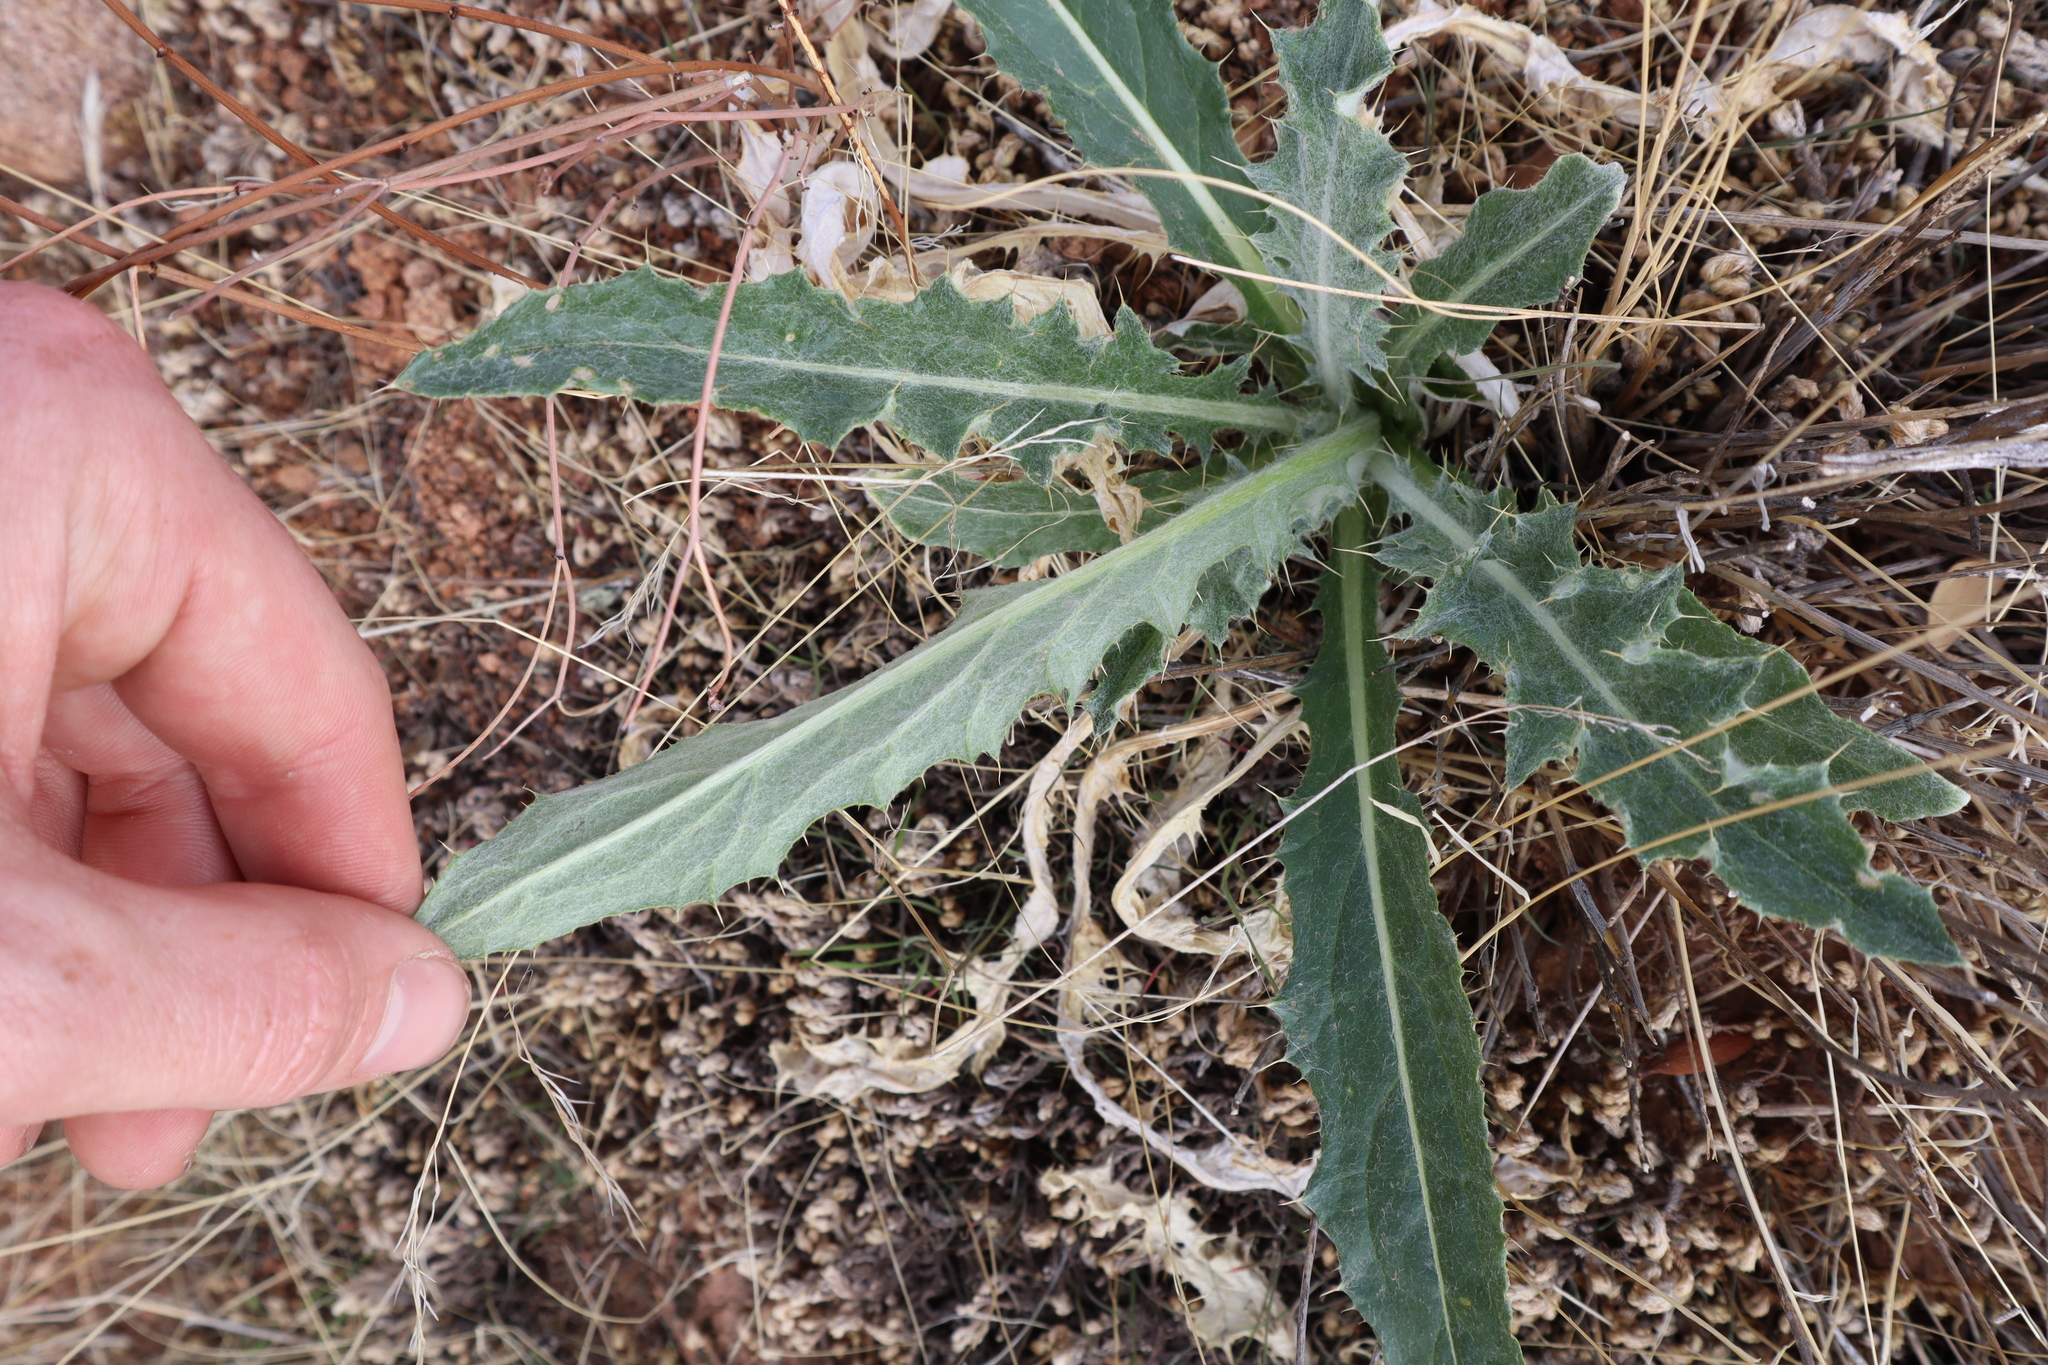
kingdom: Plantae
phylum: Tracheophyta
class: Magnoliopsida
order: Asterales
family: Asteraceae
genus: Cirsium
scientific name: Cirsium neomexicanum
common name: New mexico thistle
